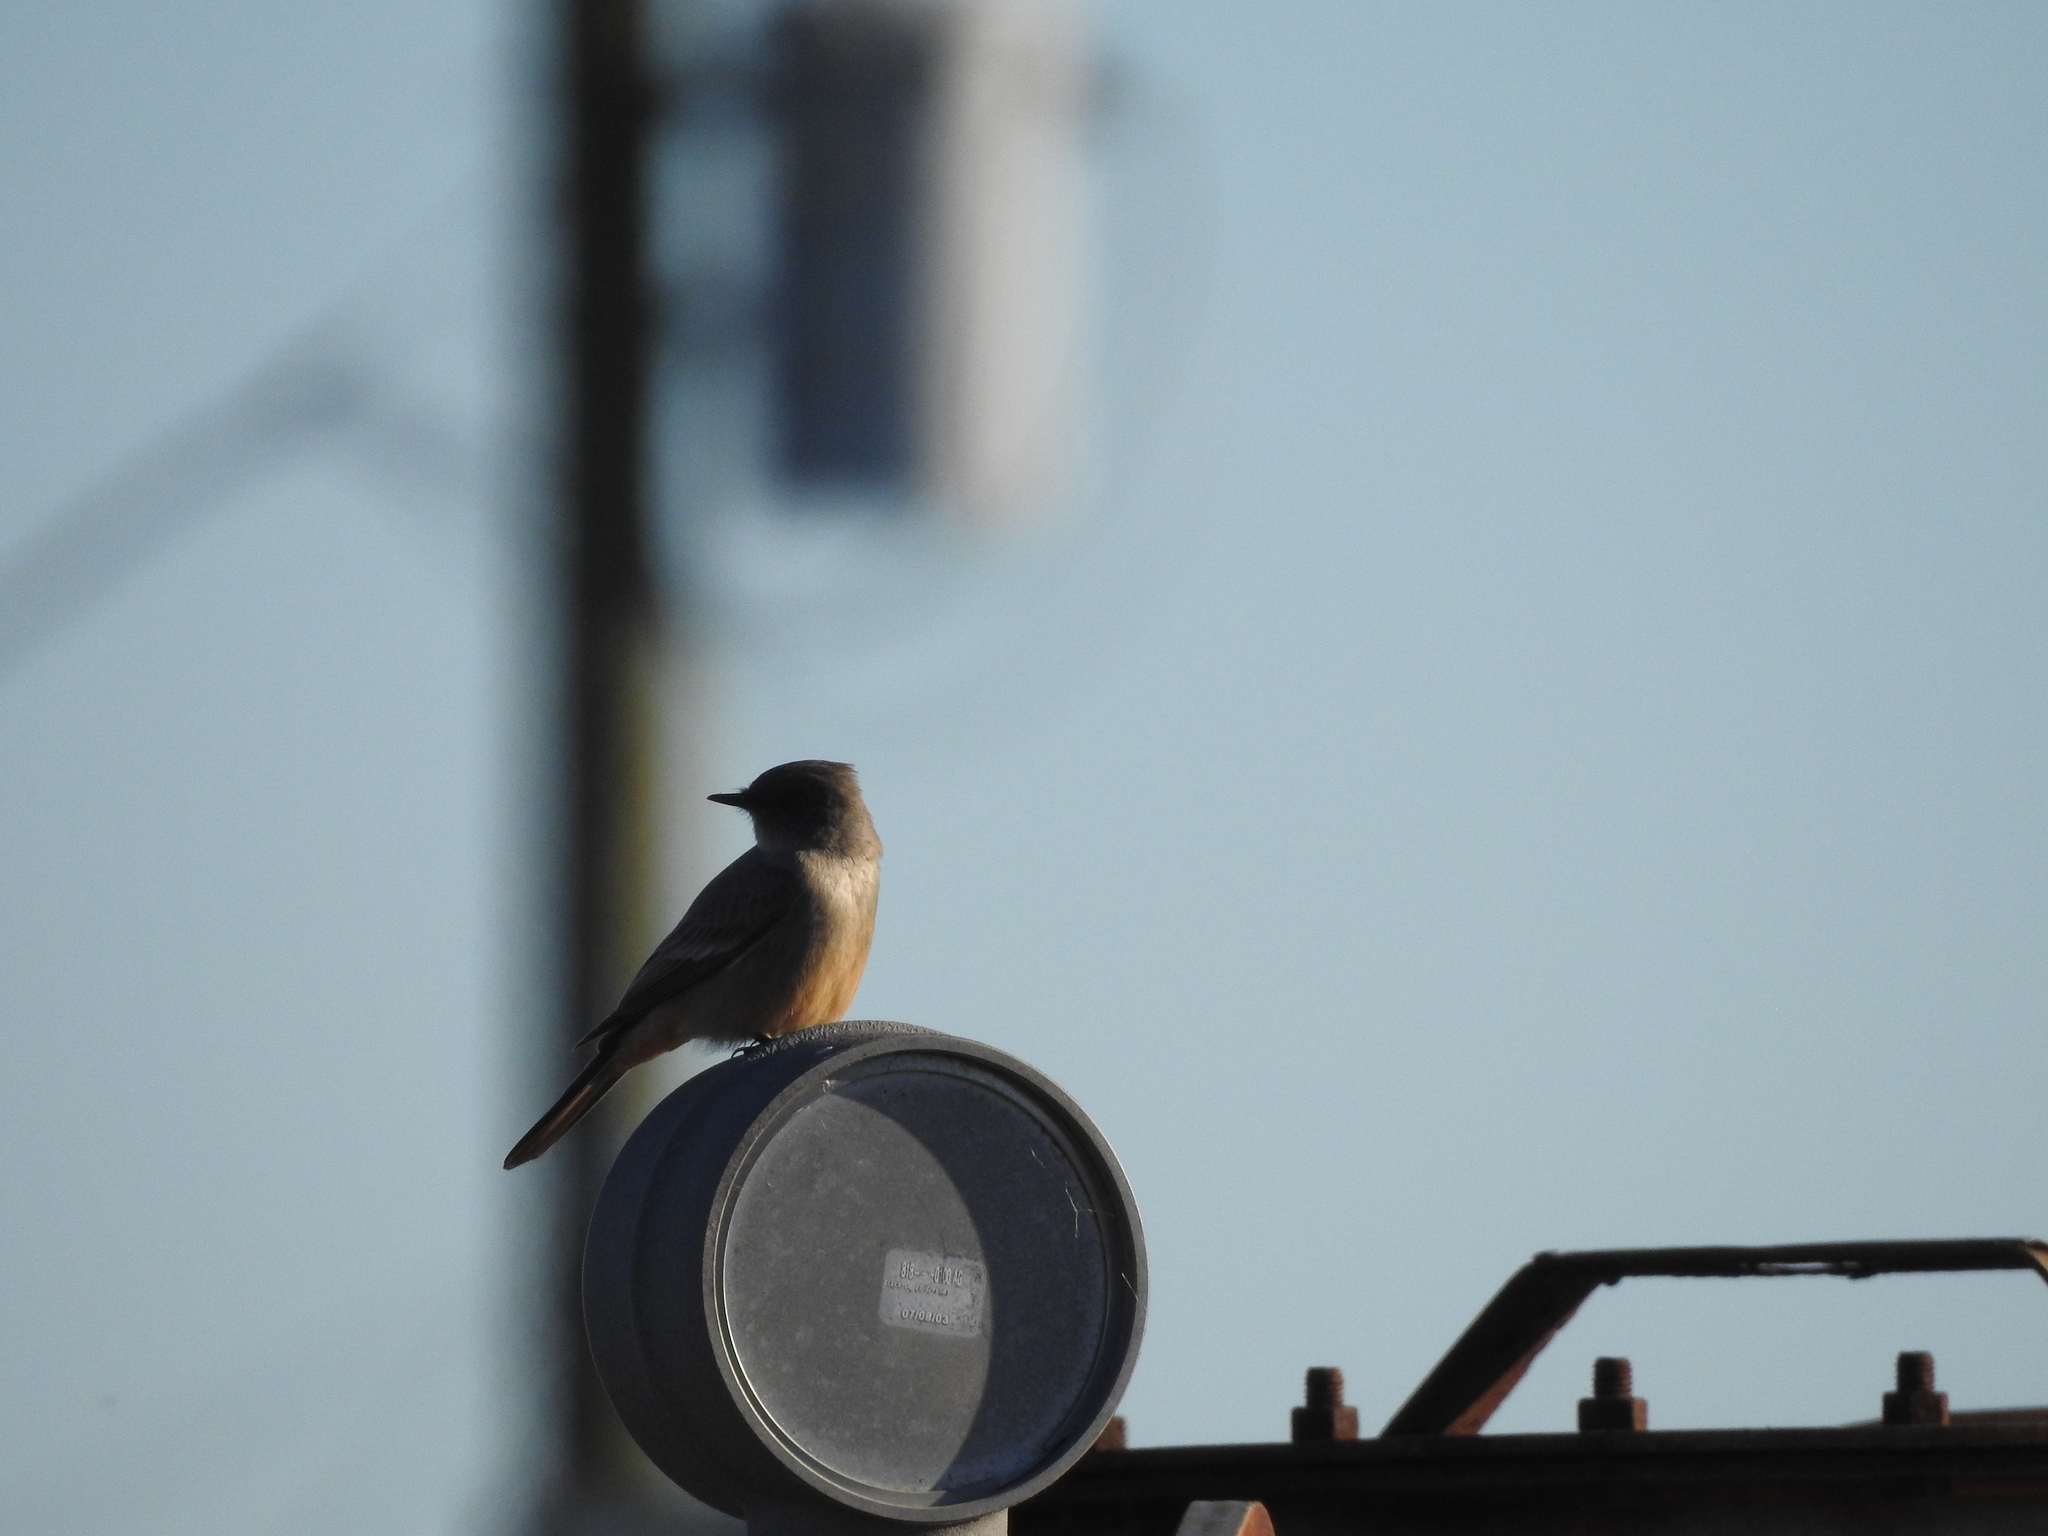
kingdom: Animalia
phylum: Chordata
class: Aves
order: Passeriformes
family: Tyrannidae
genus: Sayornis
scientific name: Sayornis saya
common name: Say's phoebe
